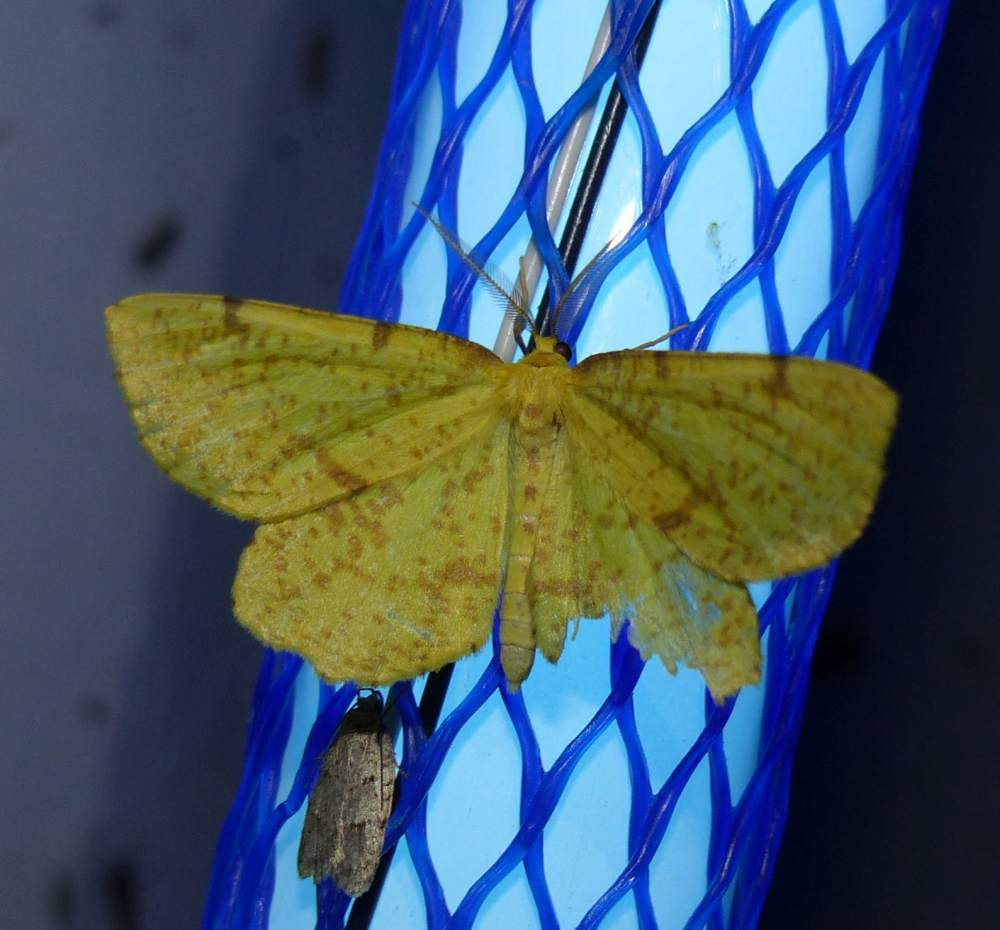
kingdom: Animalia
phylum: Arthropoda
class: Insecta
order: Lepidoptera
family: Geometridae
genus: Xanthotype
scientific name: Xanthotype
